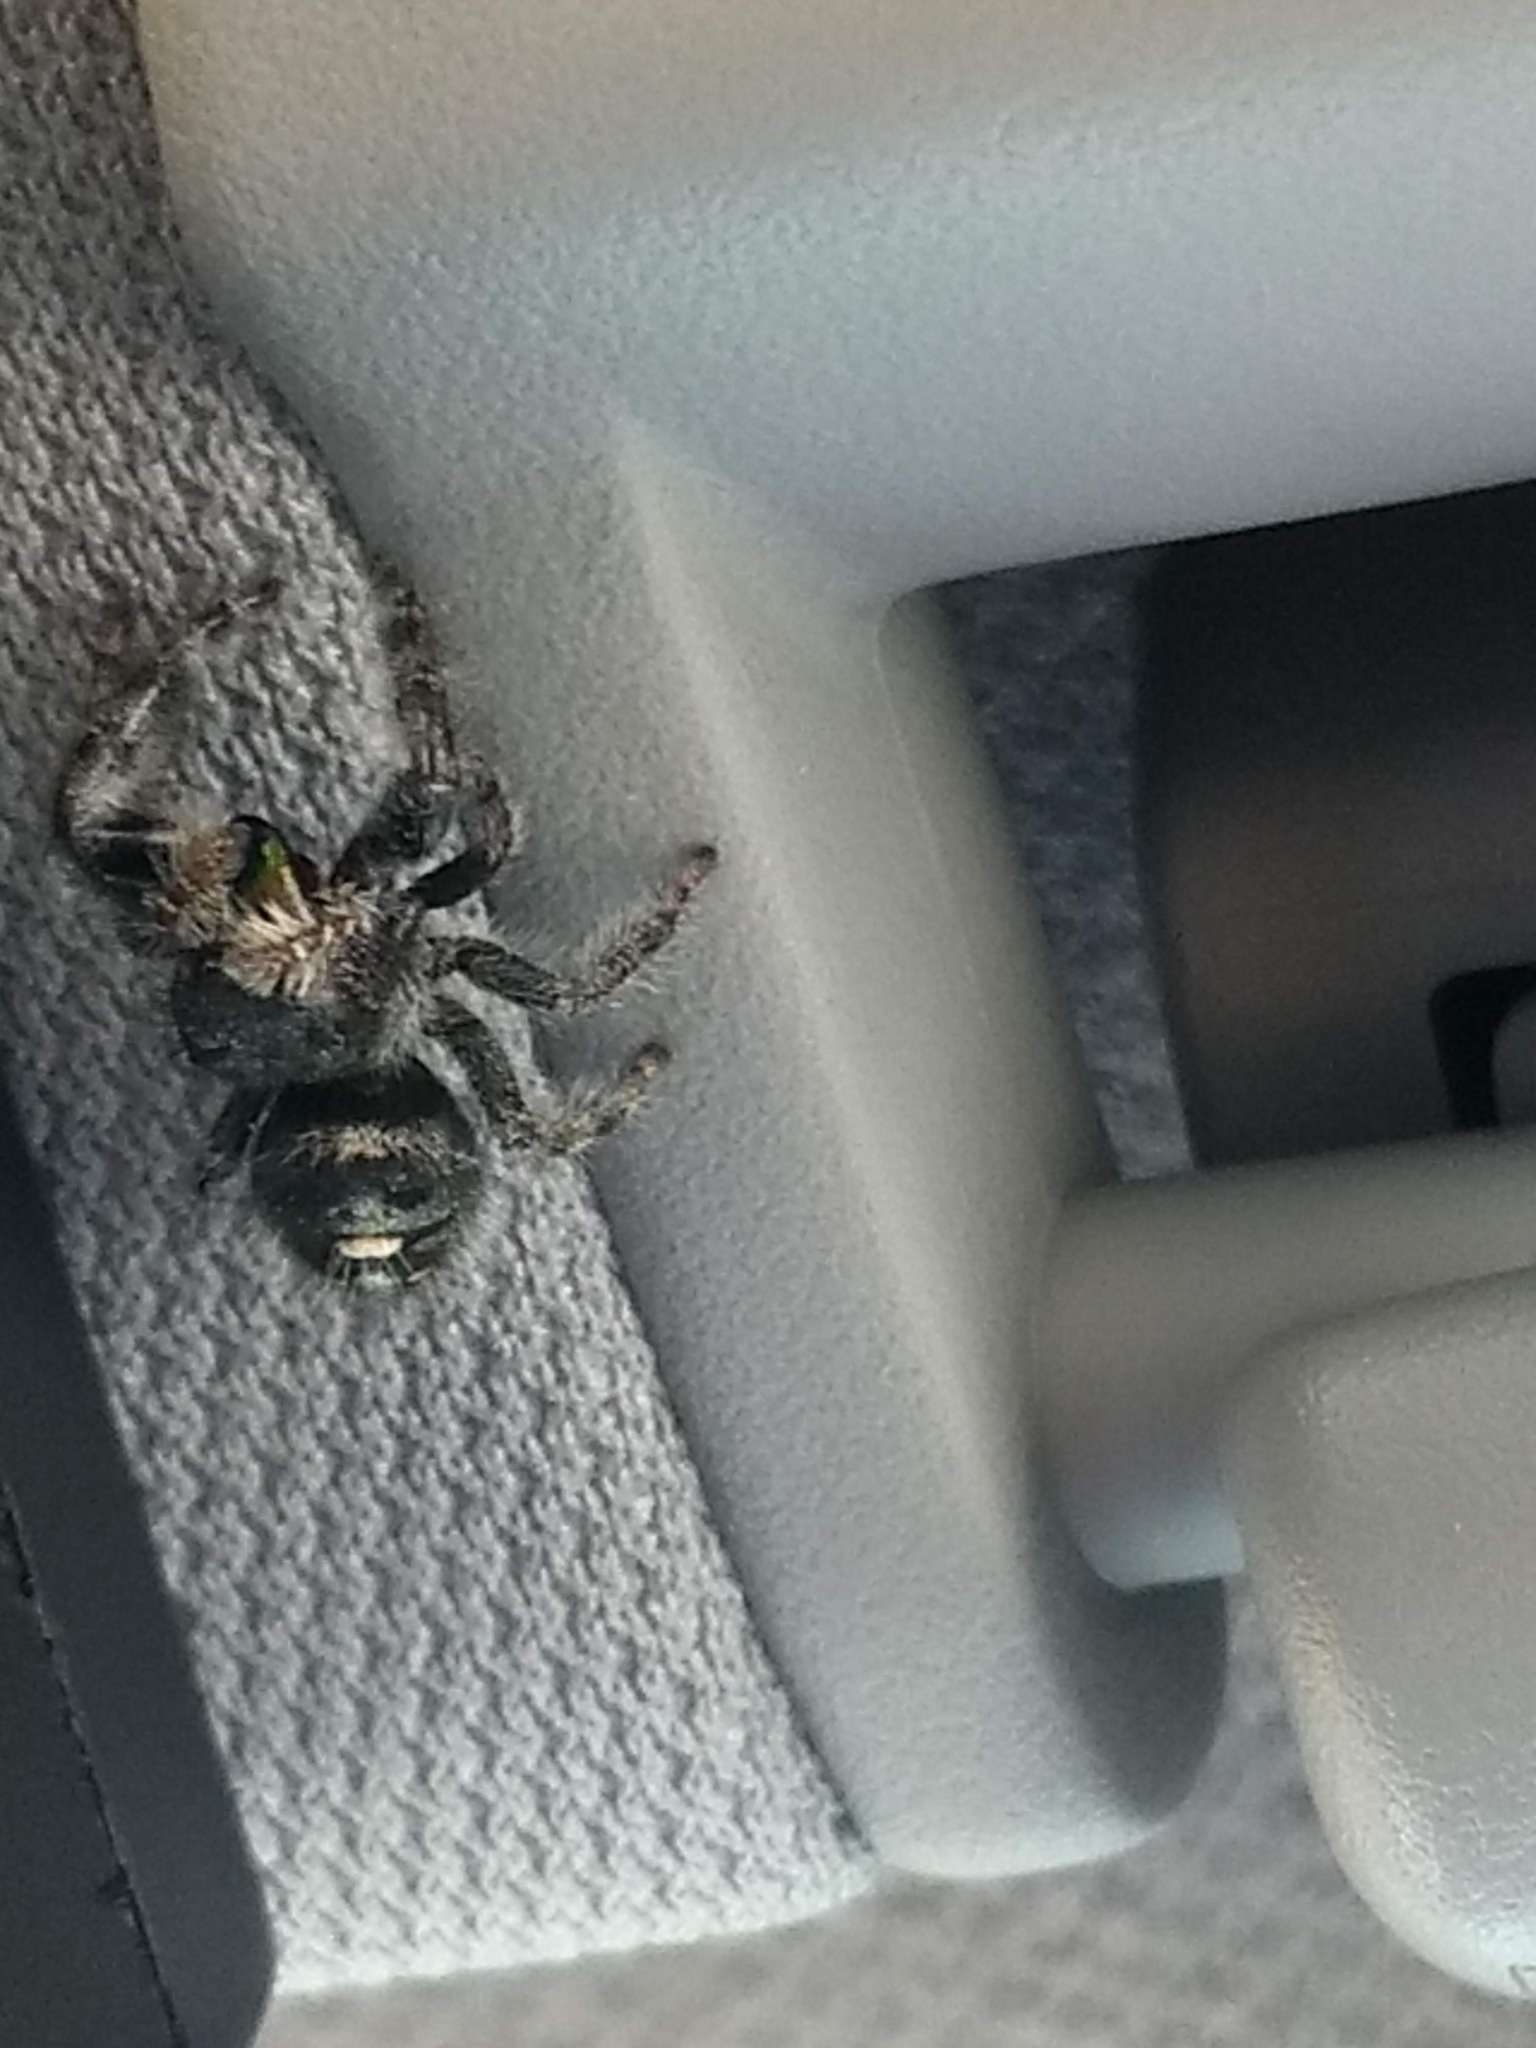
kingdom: Animalia
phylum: Arthropoda
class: Arachnida
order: Araneae
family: Salticidae
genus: Phidippus
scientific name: Phidippus audax
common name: Bold jumper
